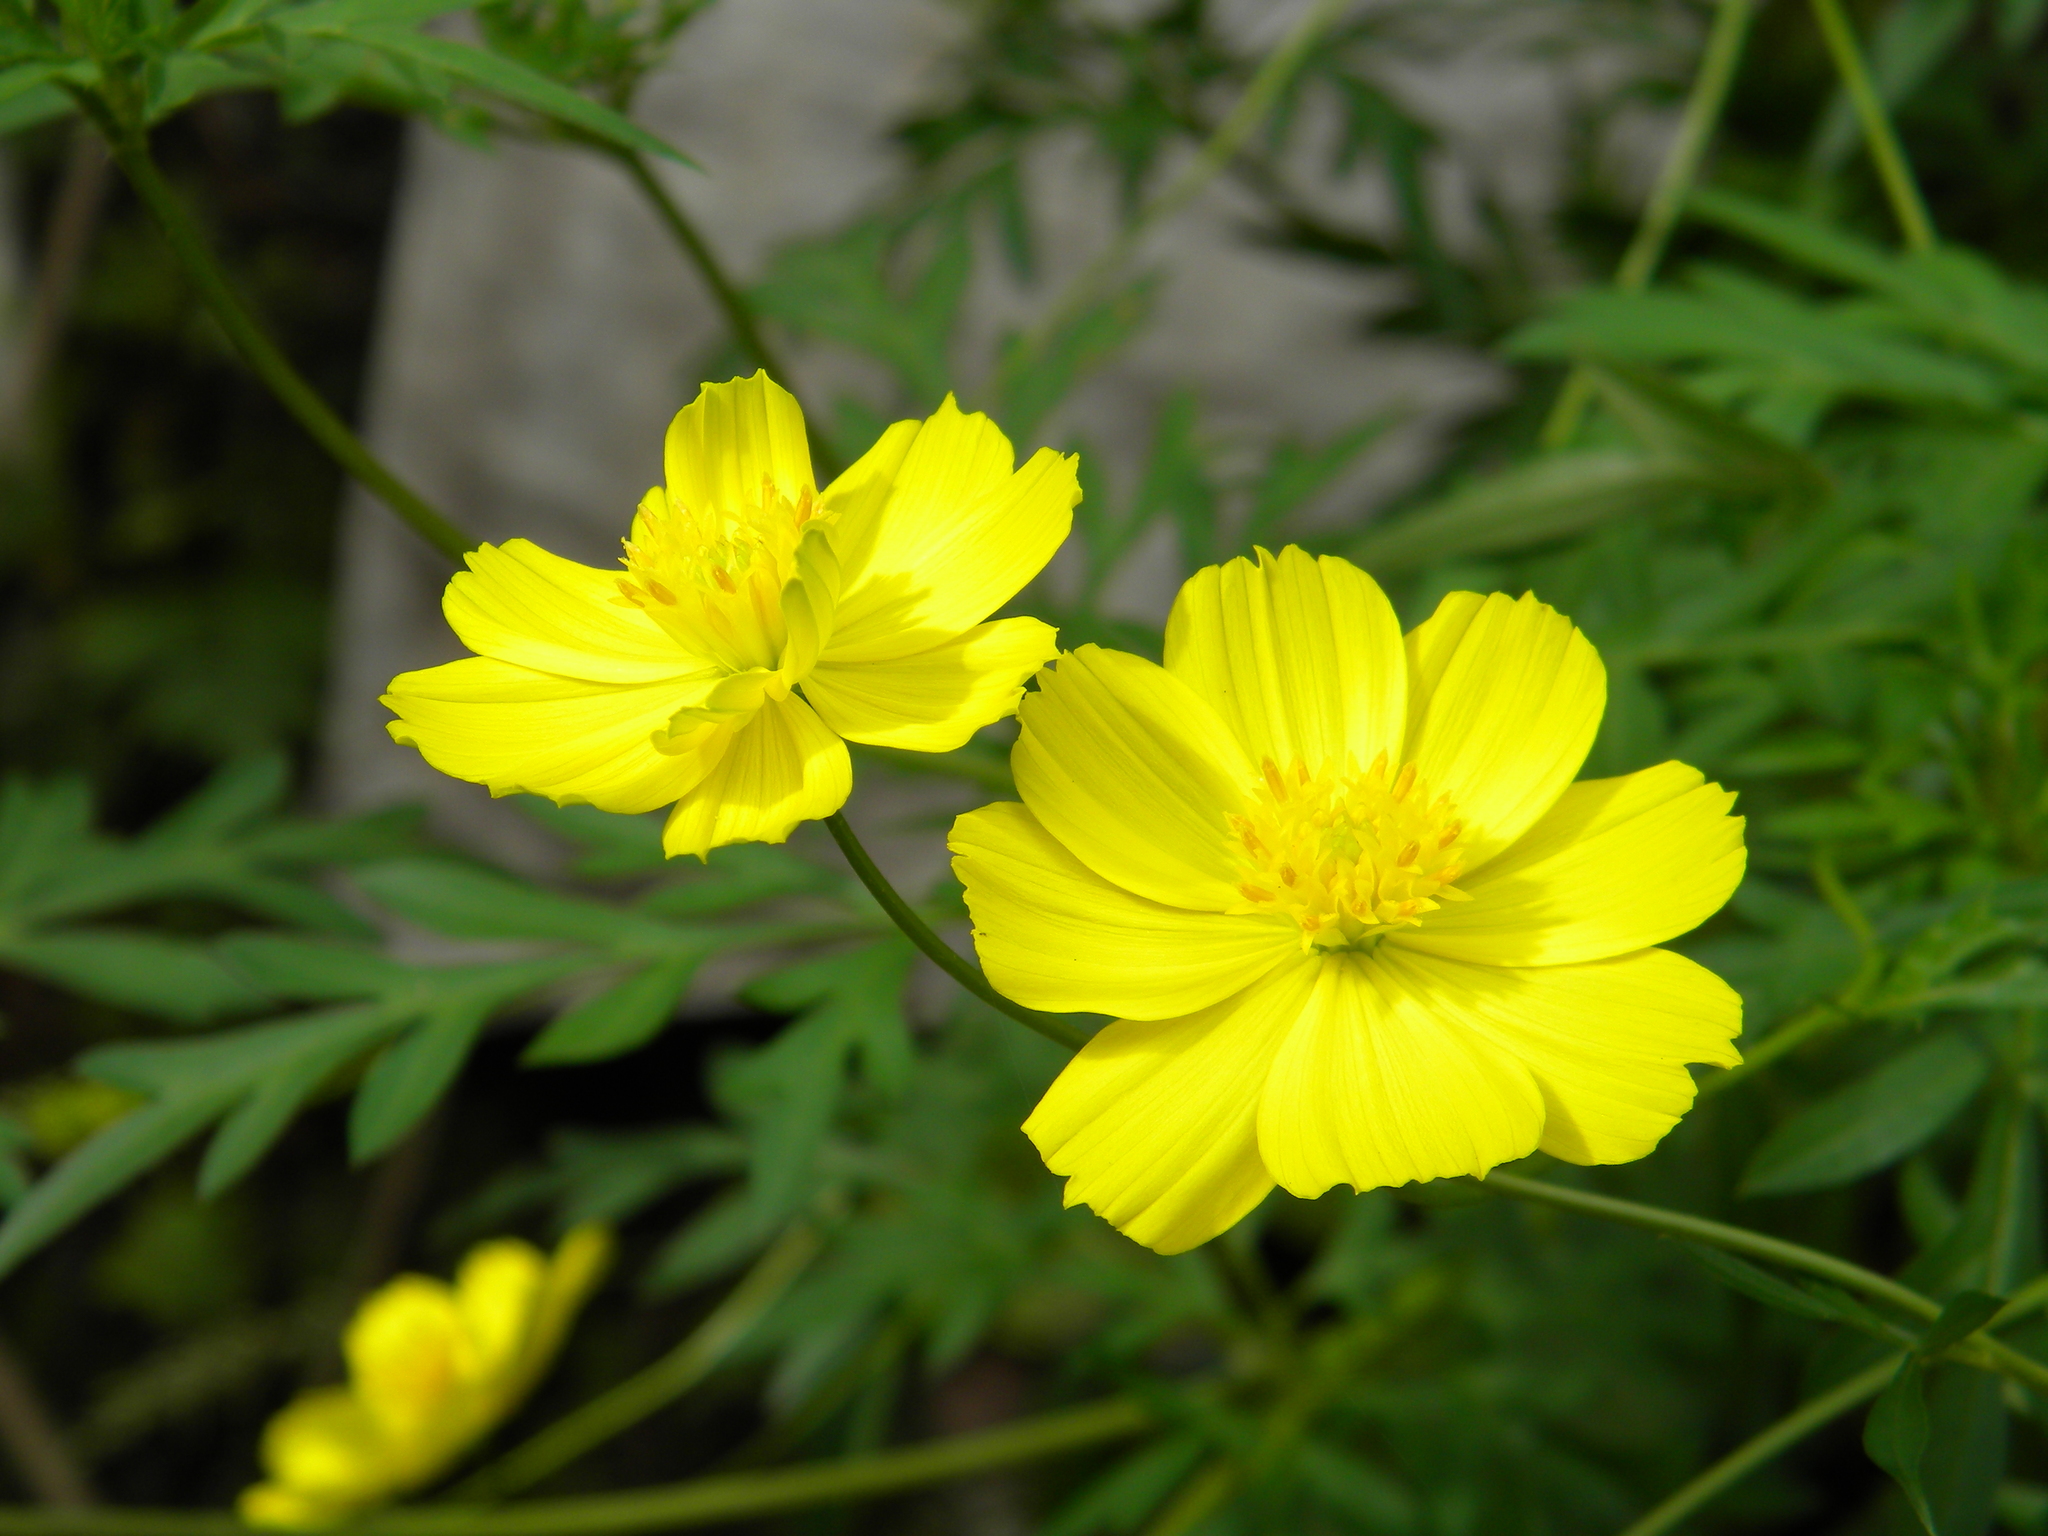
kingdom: Plantae
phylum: Tracheophyta
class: Magnoliopsida
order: Asterales
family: Asteraceae
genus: Cosmos
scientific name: Cosmos sulphureus
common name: Sulphur cosmos
